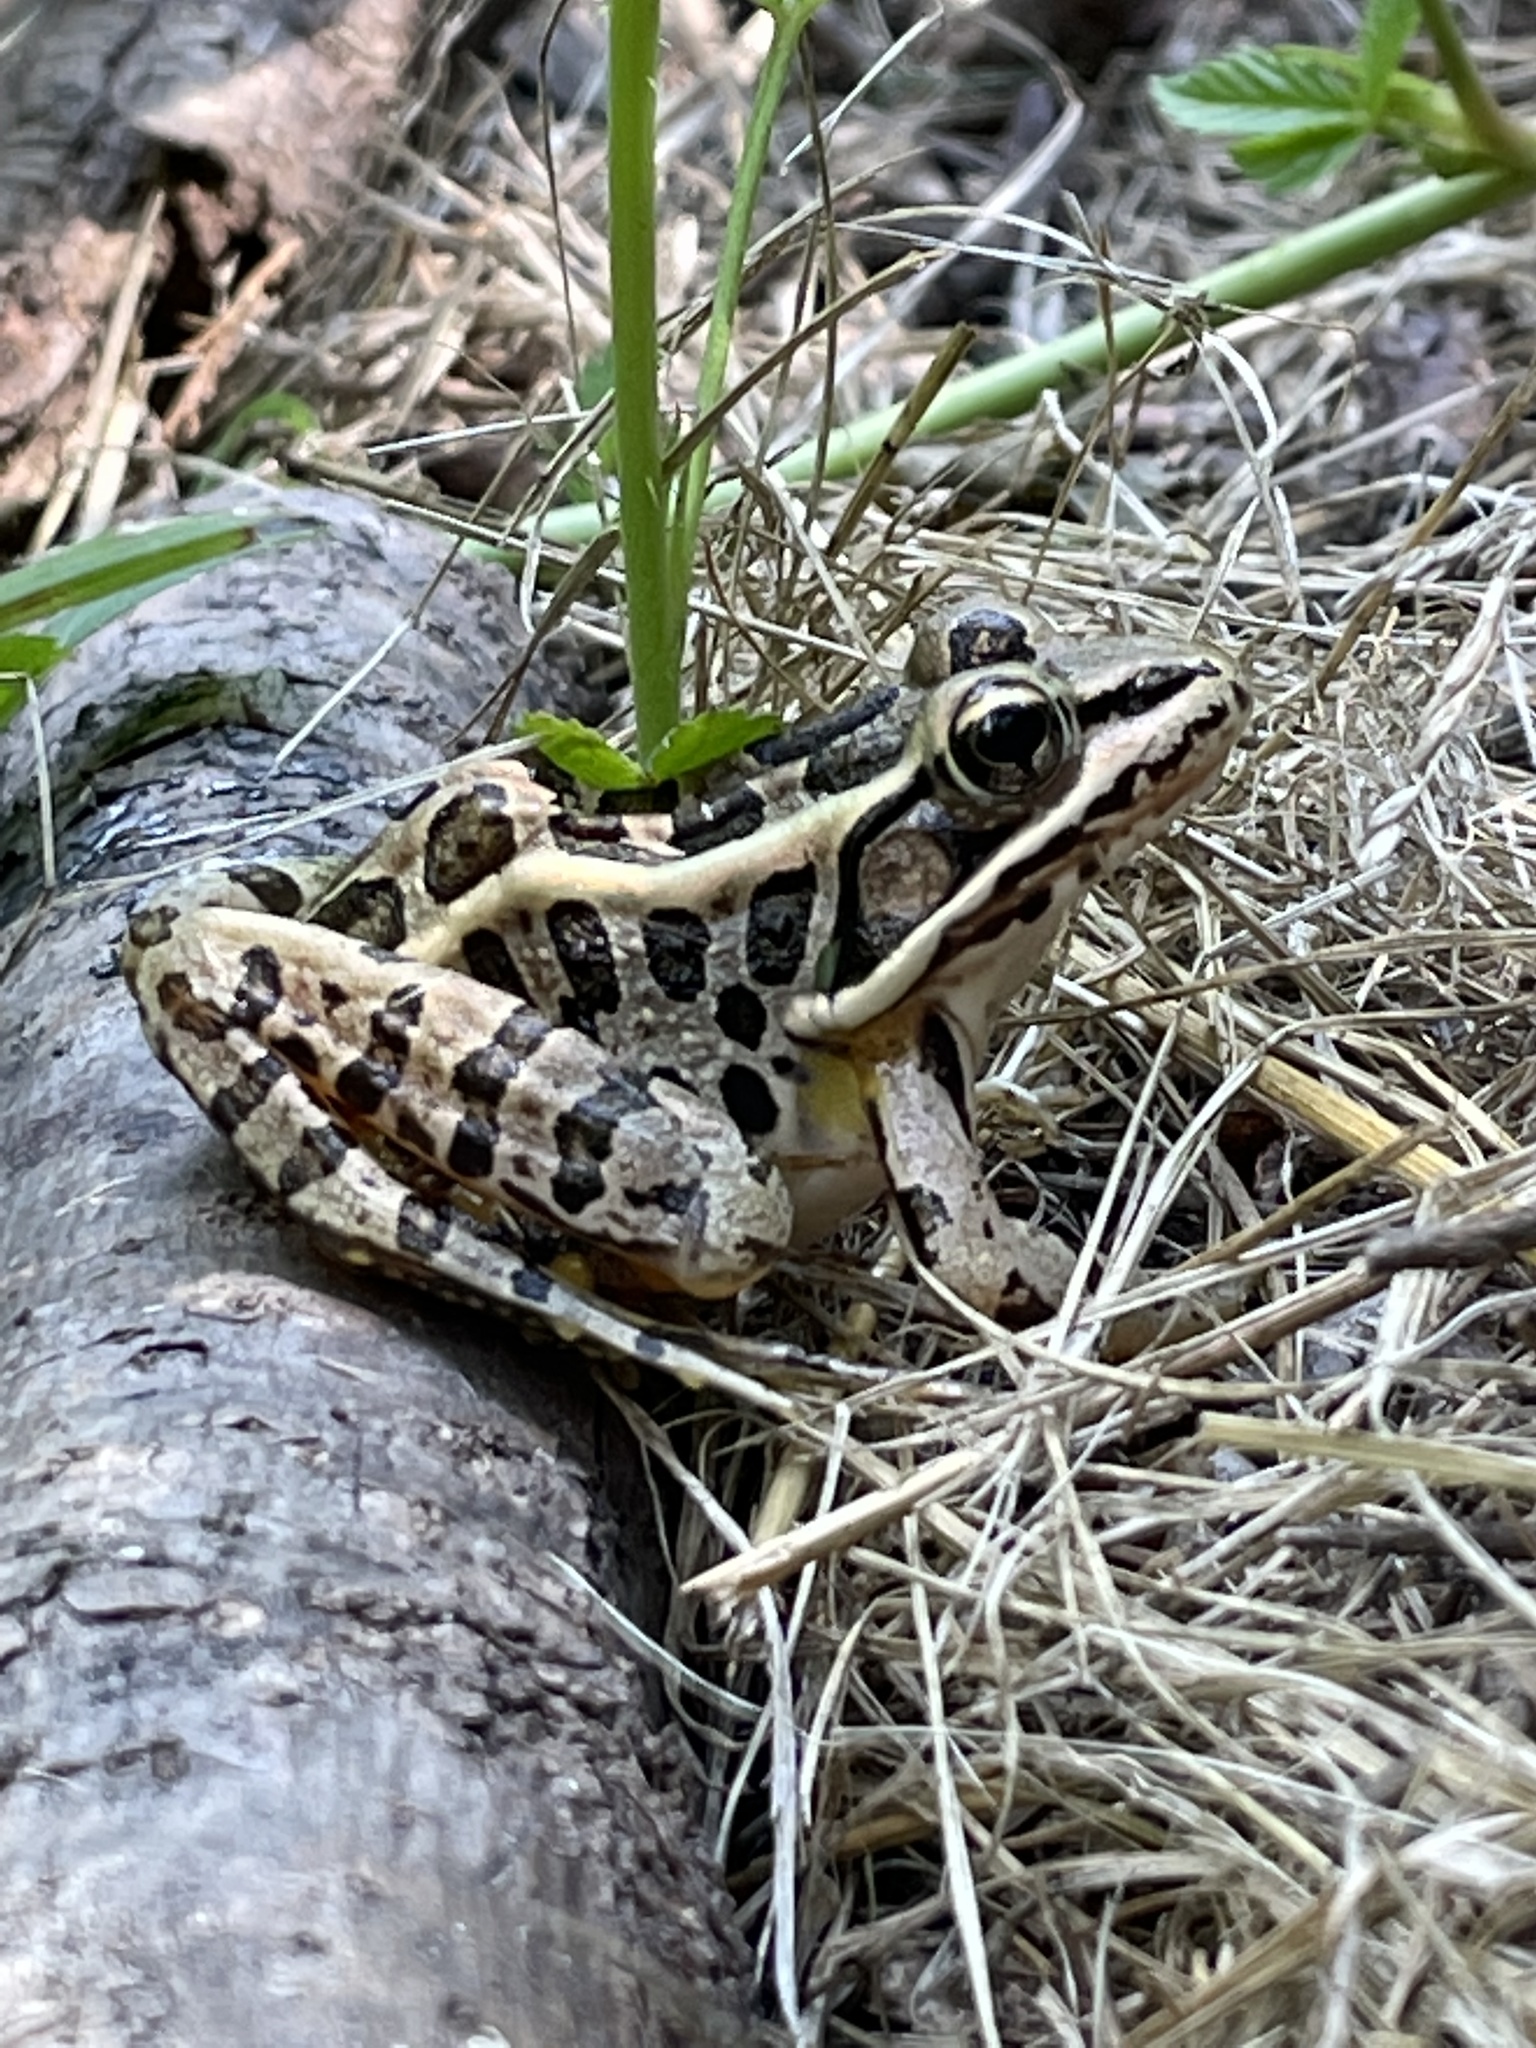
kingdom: Animalia
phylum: Chordata
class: Amphibia
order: Anura
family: Ranidae
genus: Lithobates
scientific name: Lithobates palustris
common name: Pickerel frog
